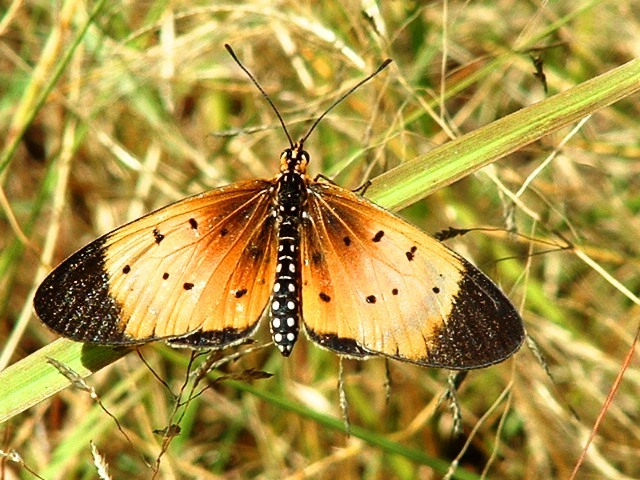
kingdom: Animalia
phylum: Arthropoda
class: Insecta
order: Lepidoptera
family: Nymphalidae
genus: Stephenia
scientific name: Stephenia
